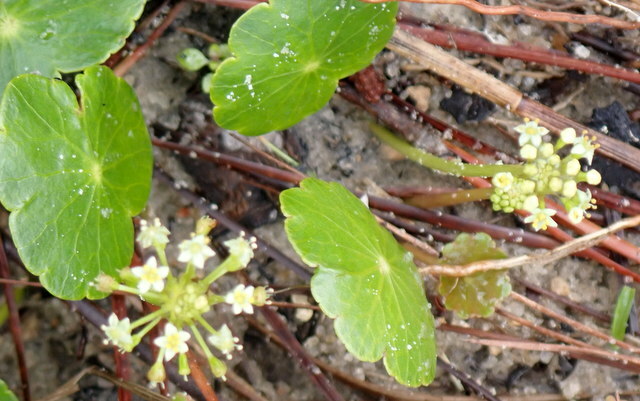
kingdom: Plantae
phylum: Tracheophyta
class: Magnoliopsida
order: Apiales
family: Araliaceae
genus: Hydrocotyle
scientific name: Hydrocotyle umbellata
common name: Water pennywort
